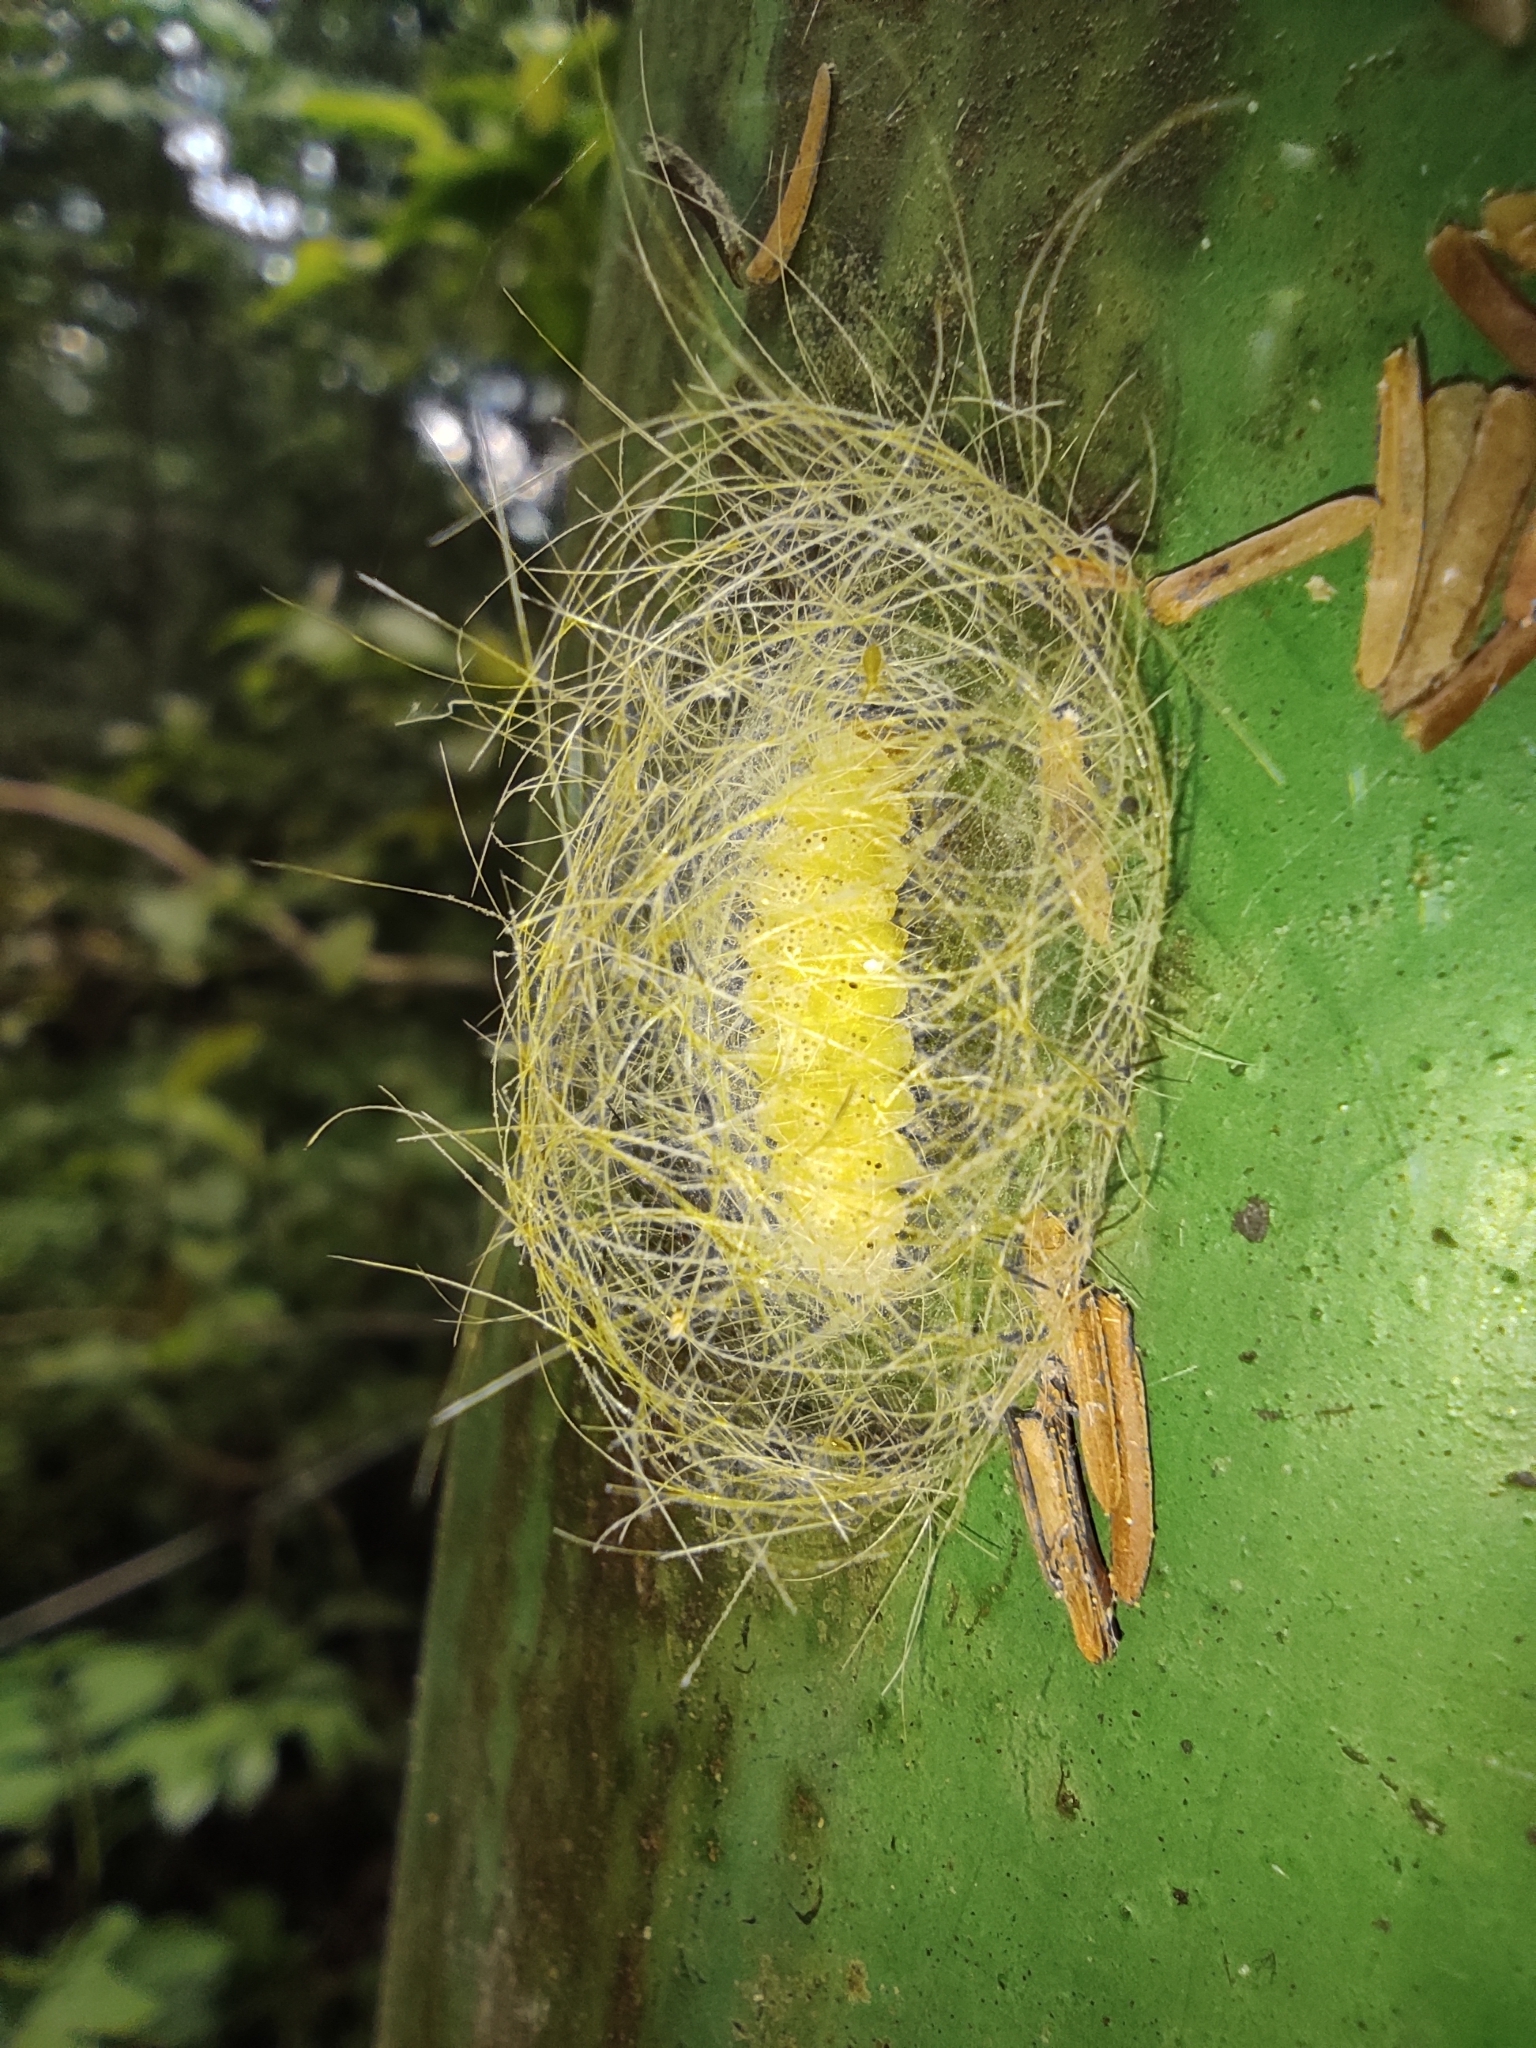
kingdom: Animalia
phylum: Arthropoda
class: Insecta
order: Lepidoptera
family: Erebidae
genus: Eudesmia
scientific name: Eudesmia menea
